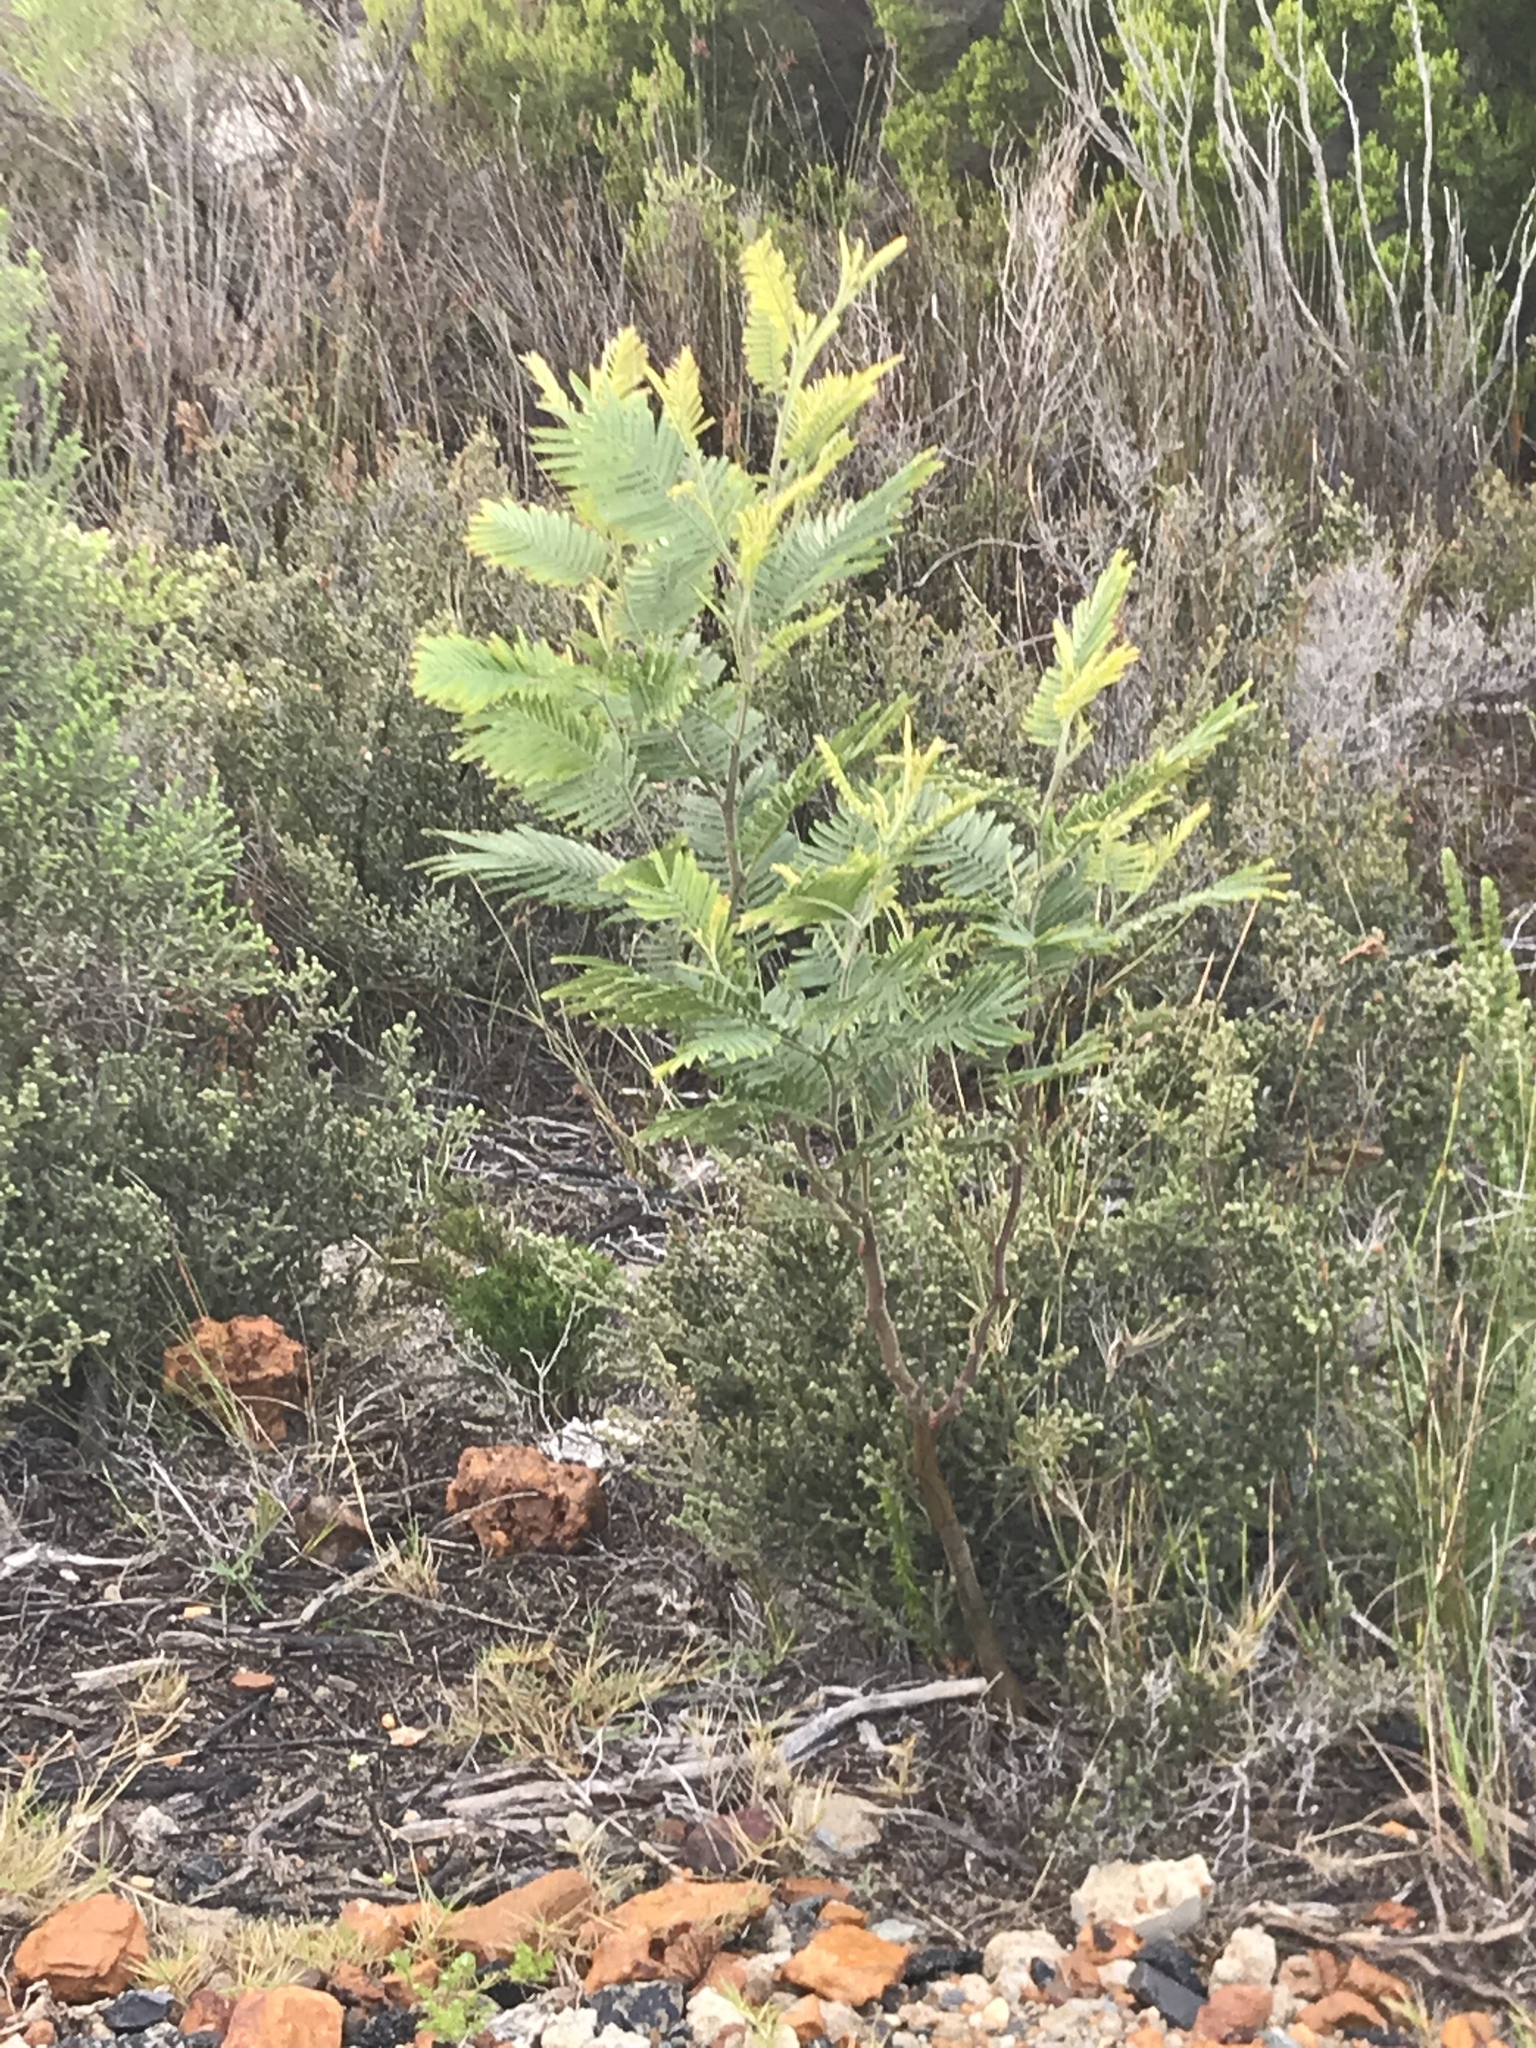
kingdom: Plantae
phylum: Tracheophyta
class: Magnoliopsida
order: Fabales
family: Fabaceae
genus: Acacia
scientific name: Acacia mearnsii
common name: Black wattle
